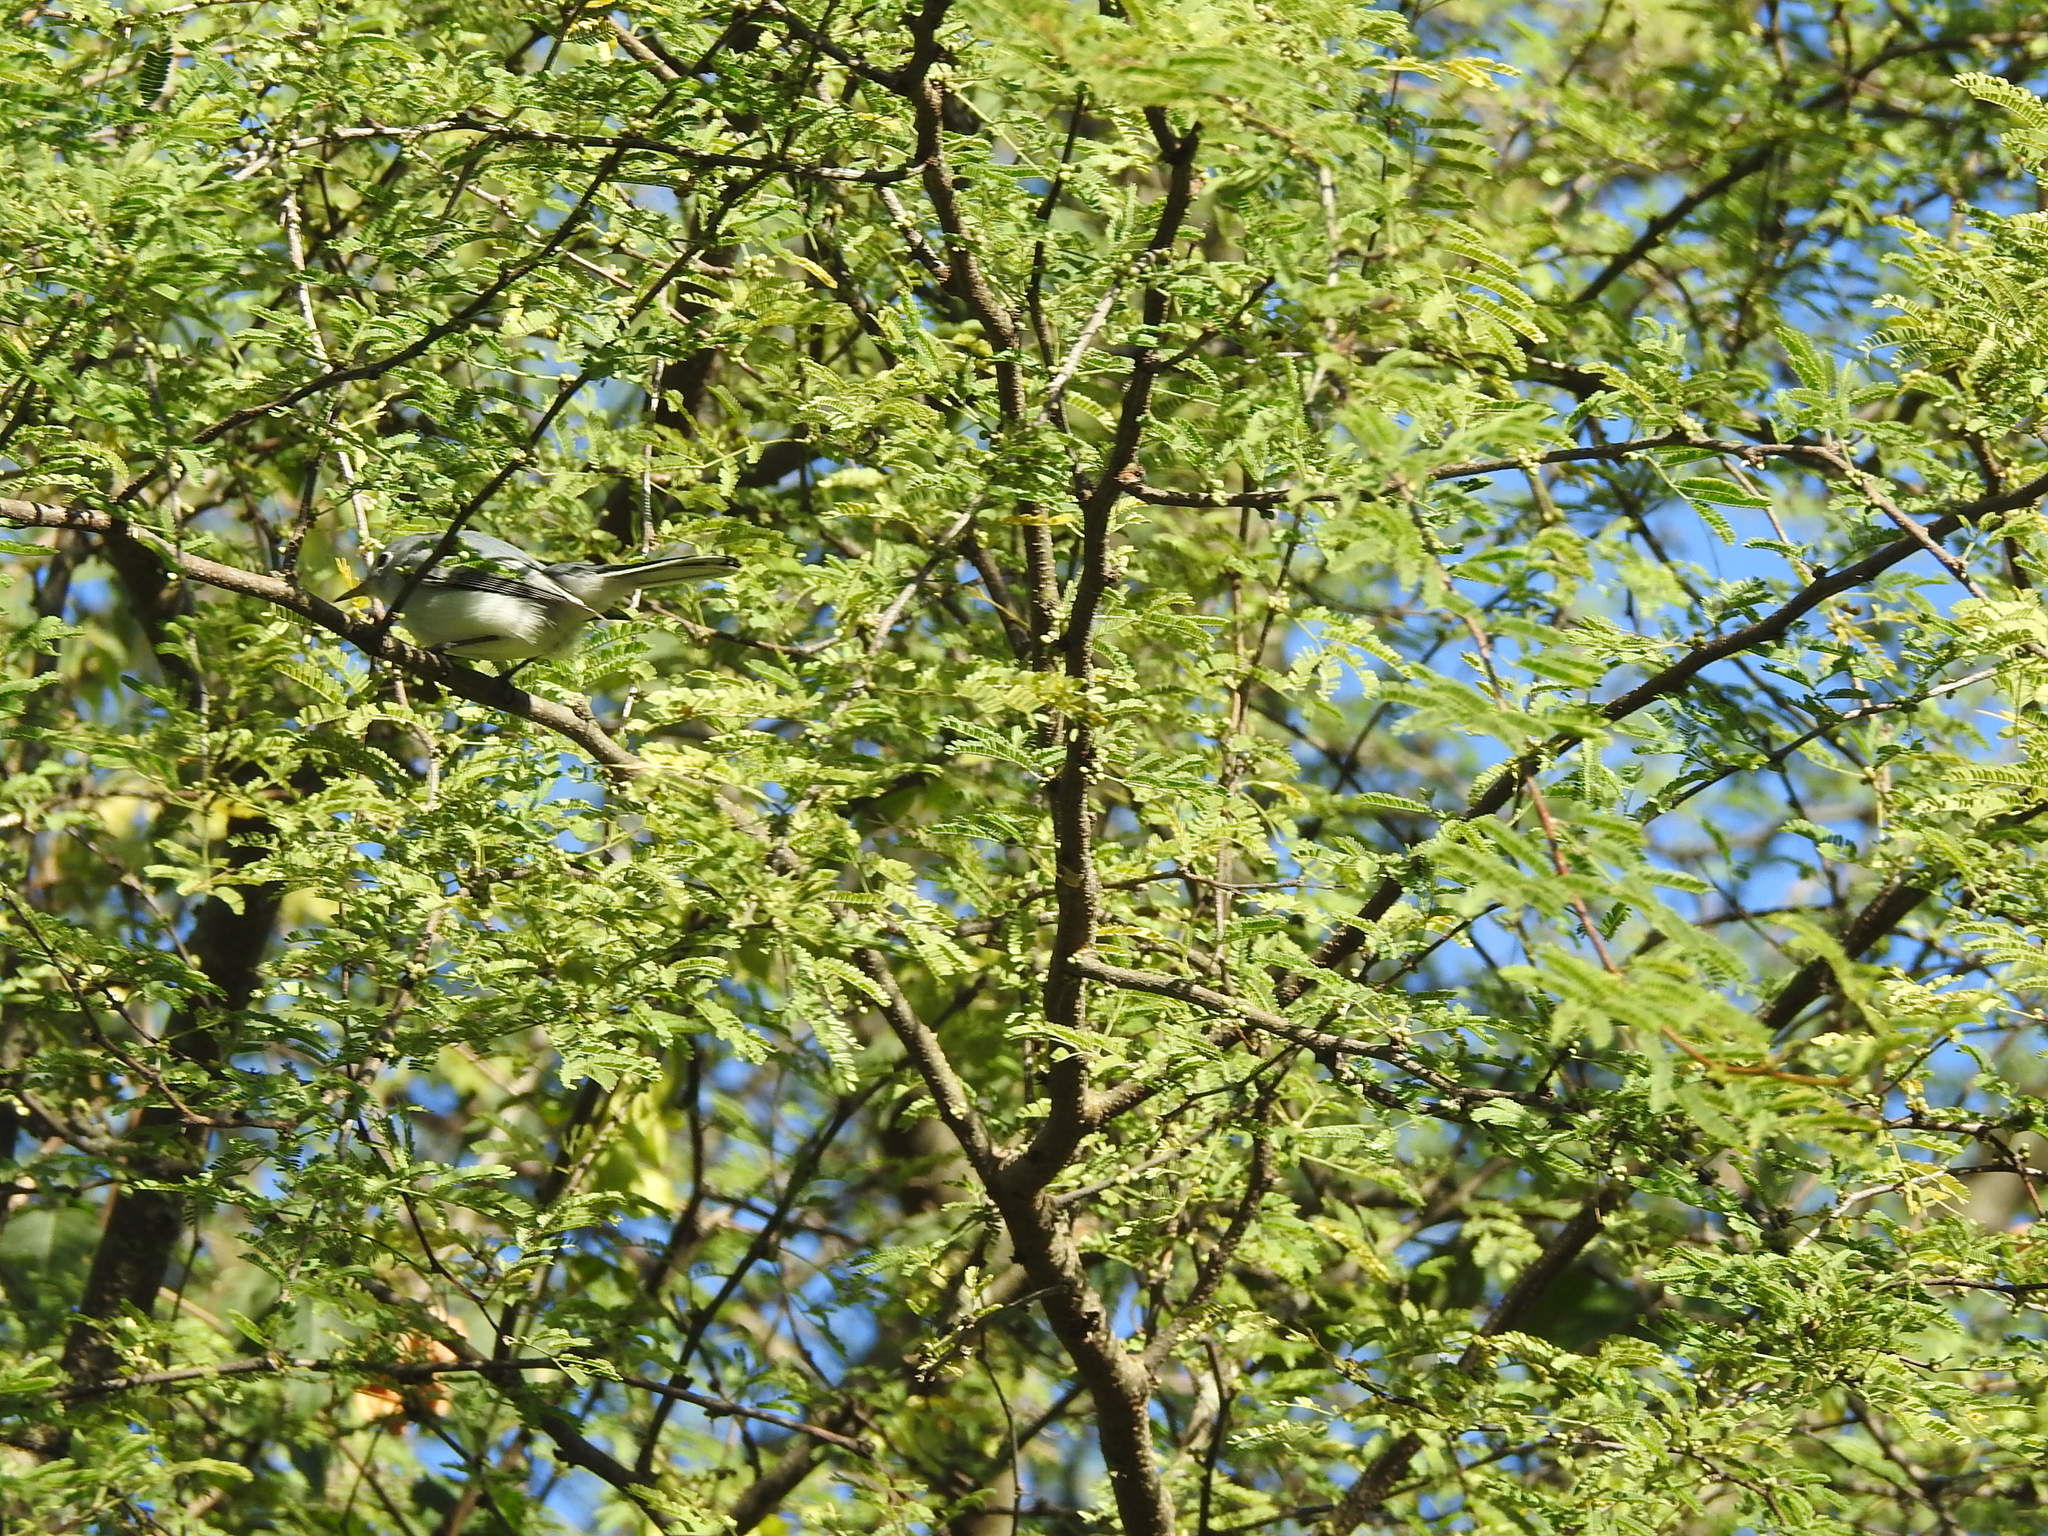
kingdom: Animalia
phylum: Chordata
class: Aves
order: Passeriformes
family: Polioptilidae
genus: Polioptila
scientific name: Polioptila caerulea
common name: Blue-gray gnatcatcher
